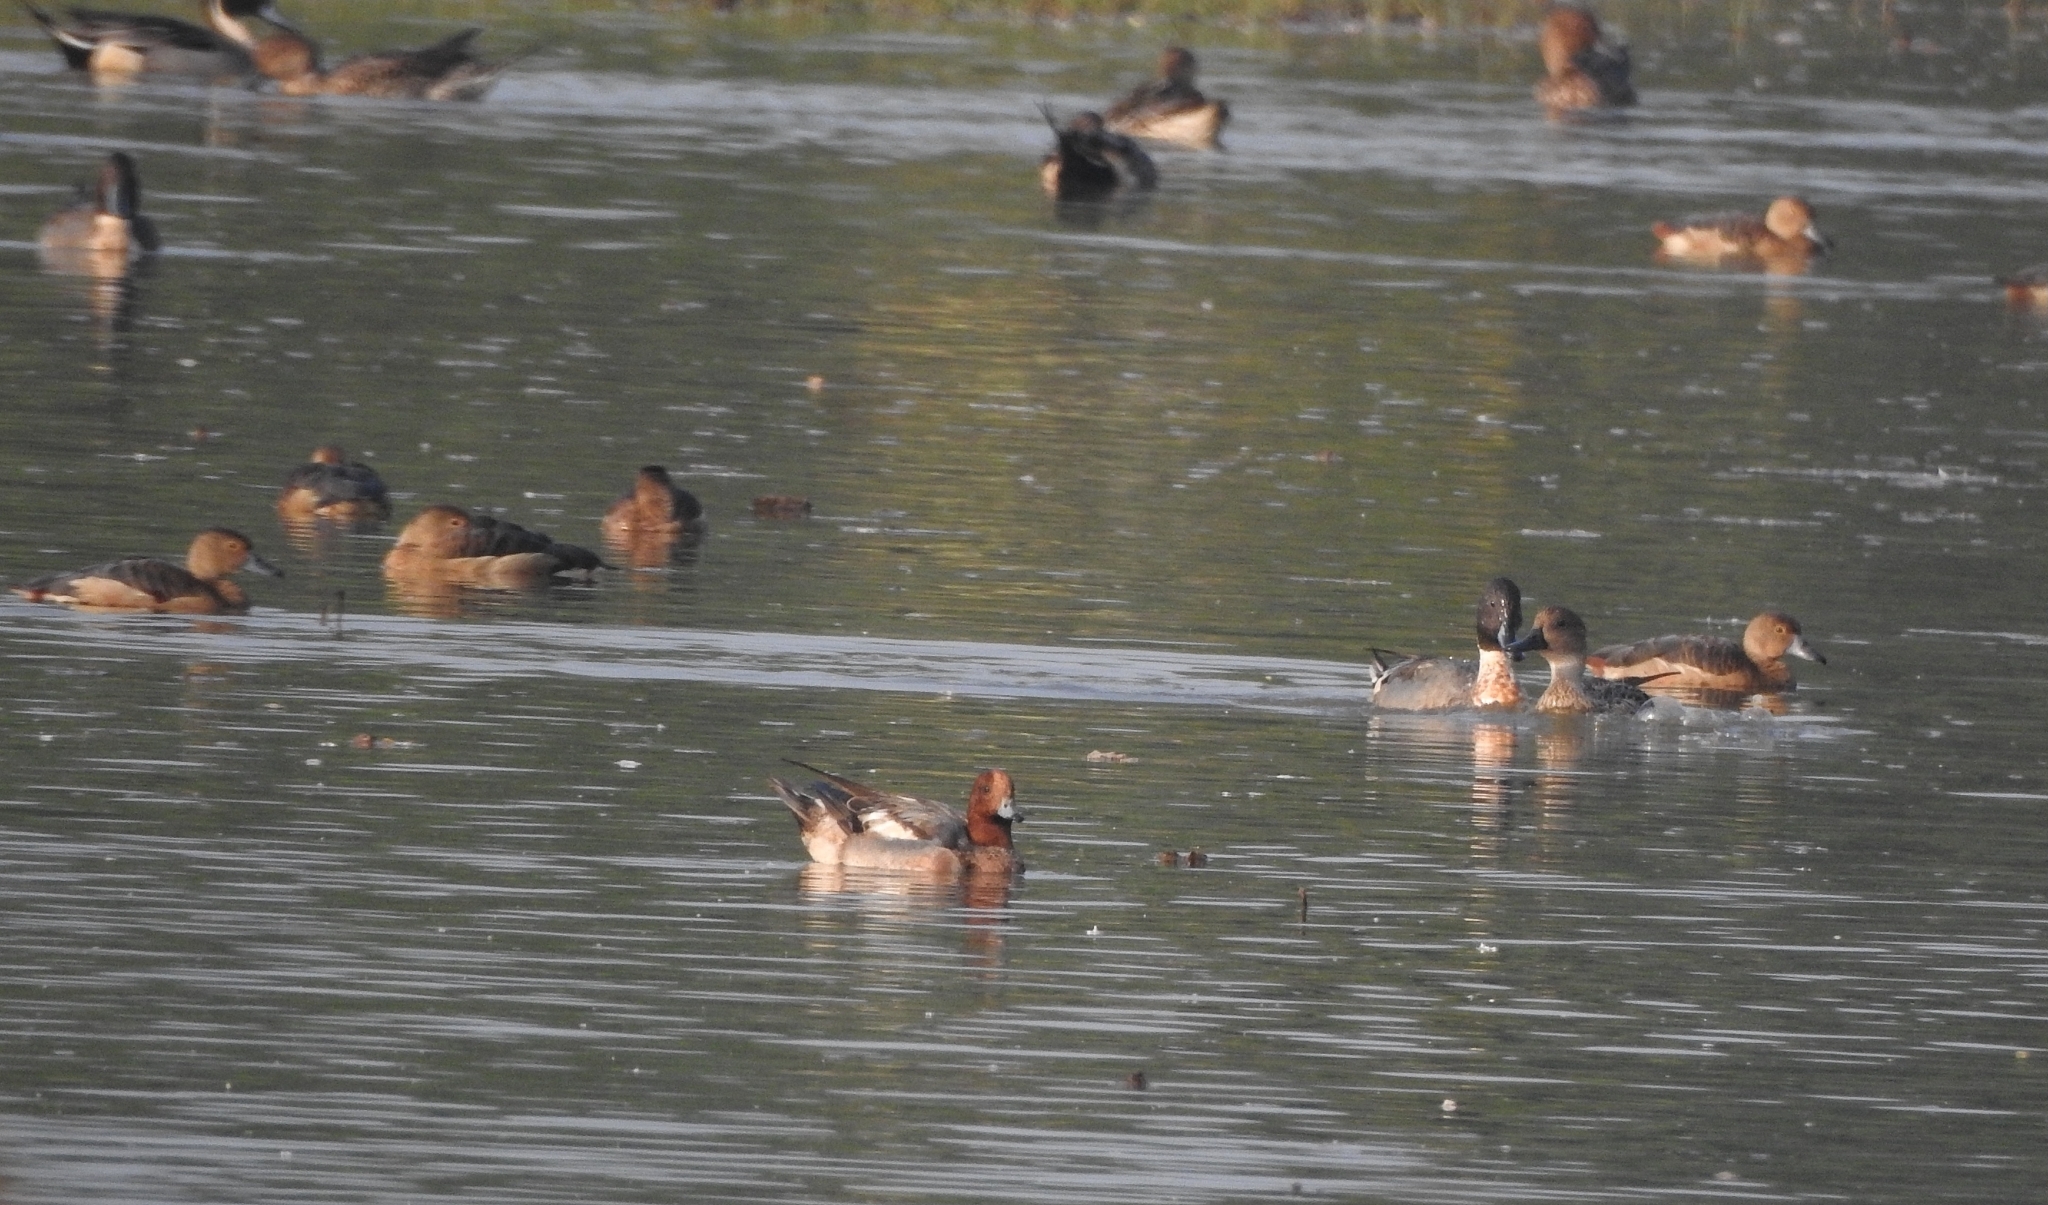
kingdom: Animalia
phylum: Chordata
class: Aves
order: Anseriformes
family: Anatidae
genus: Dendrocygna
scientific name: Dendrocygna javanica
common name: Lesser whistling-duck
